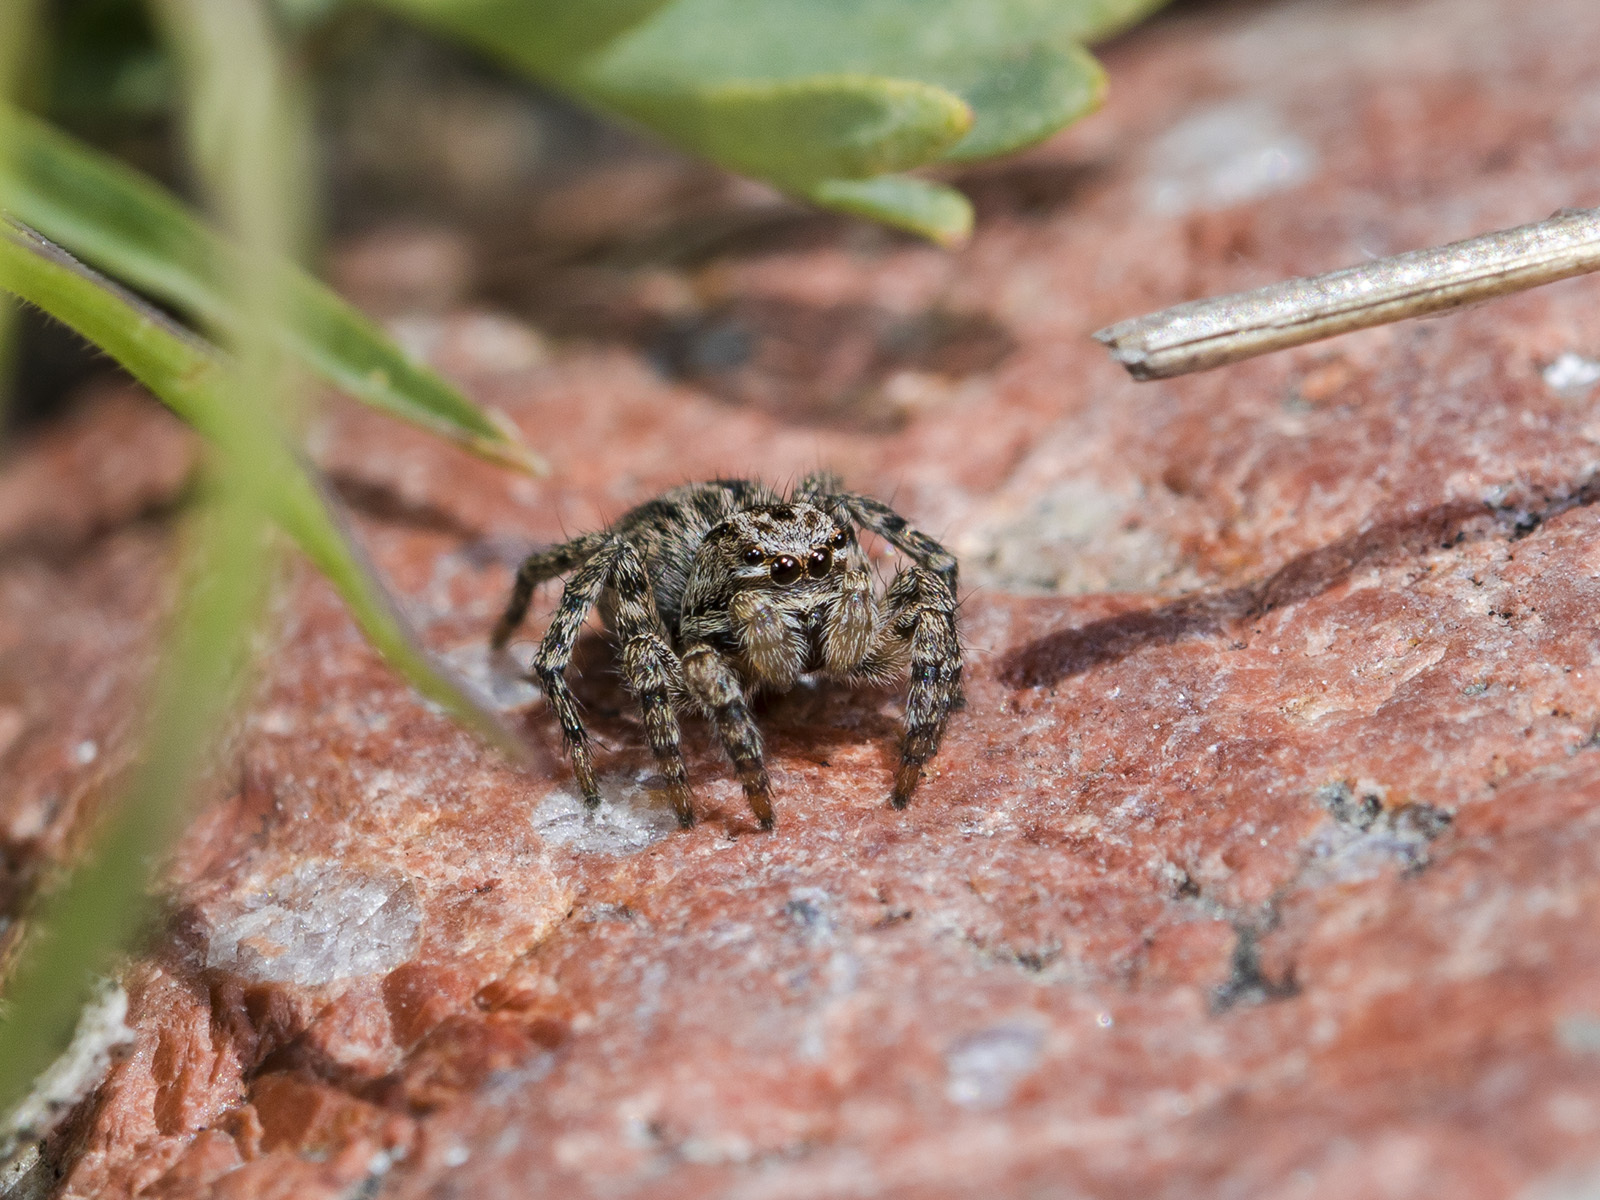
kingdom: Animalia
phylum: Arthropoda
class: Arachnida
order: Araneae
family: Salticidae
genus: Aelurillus
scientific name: Aelurillus v-insignitus
